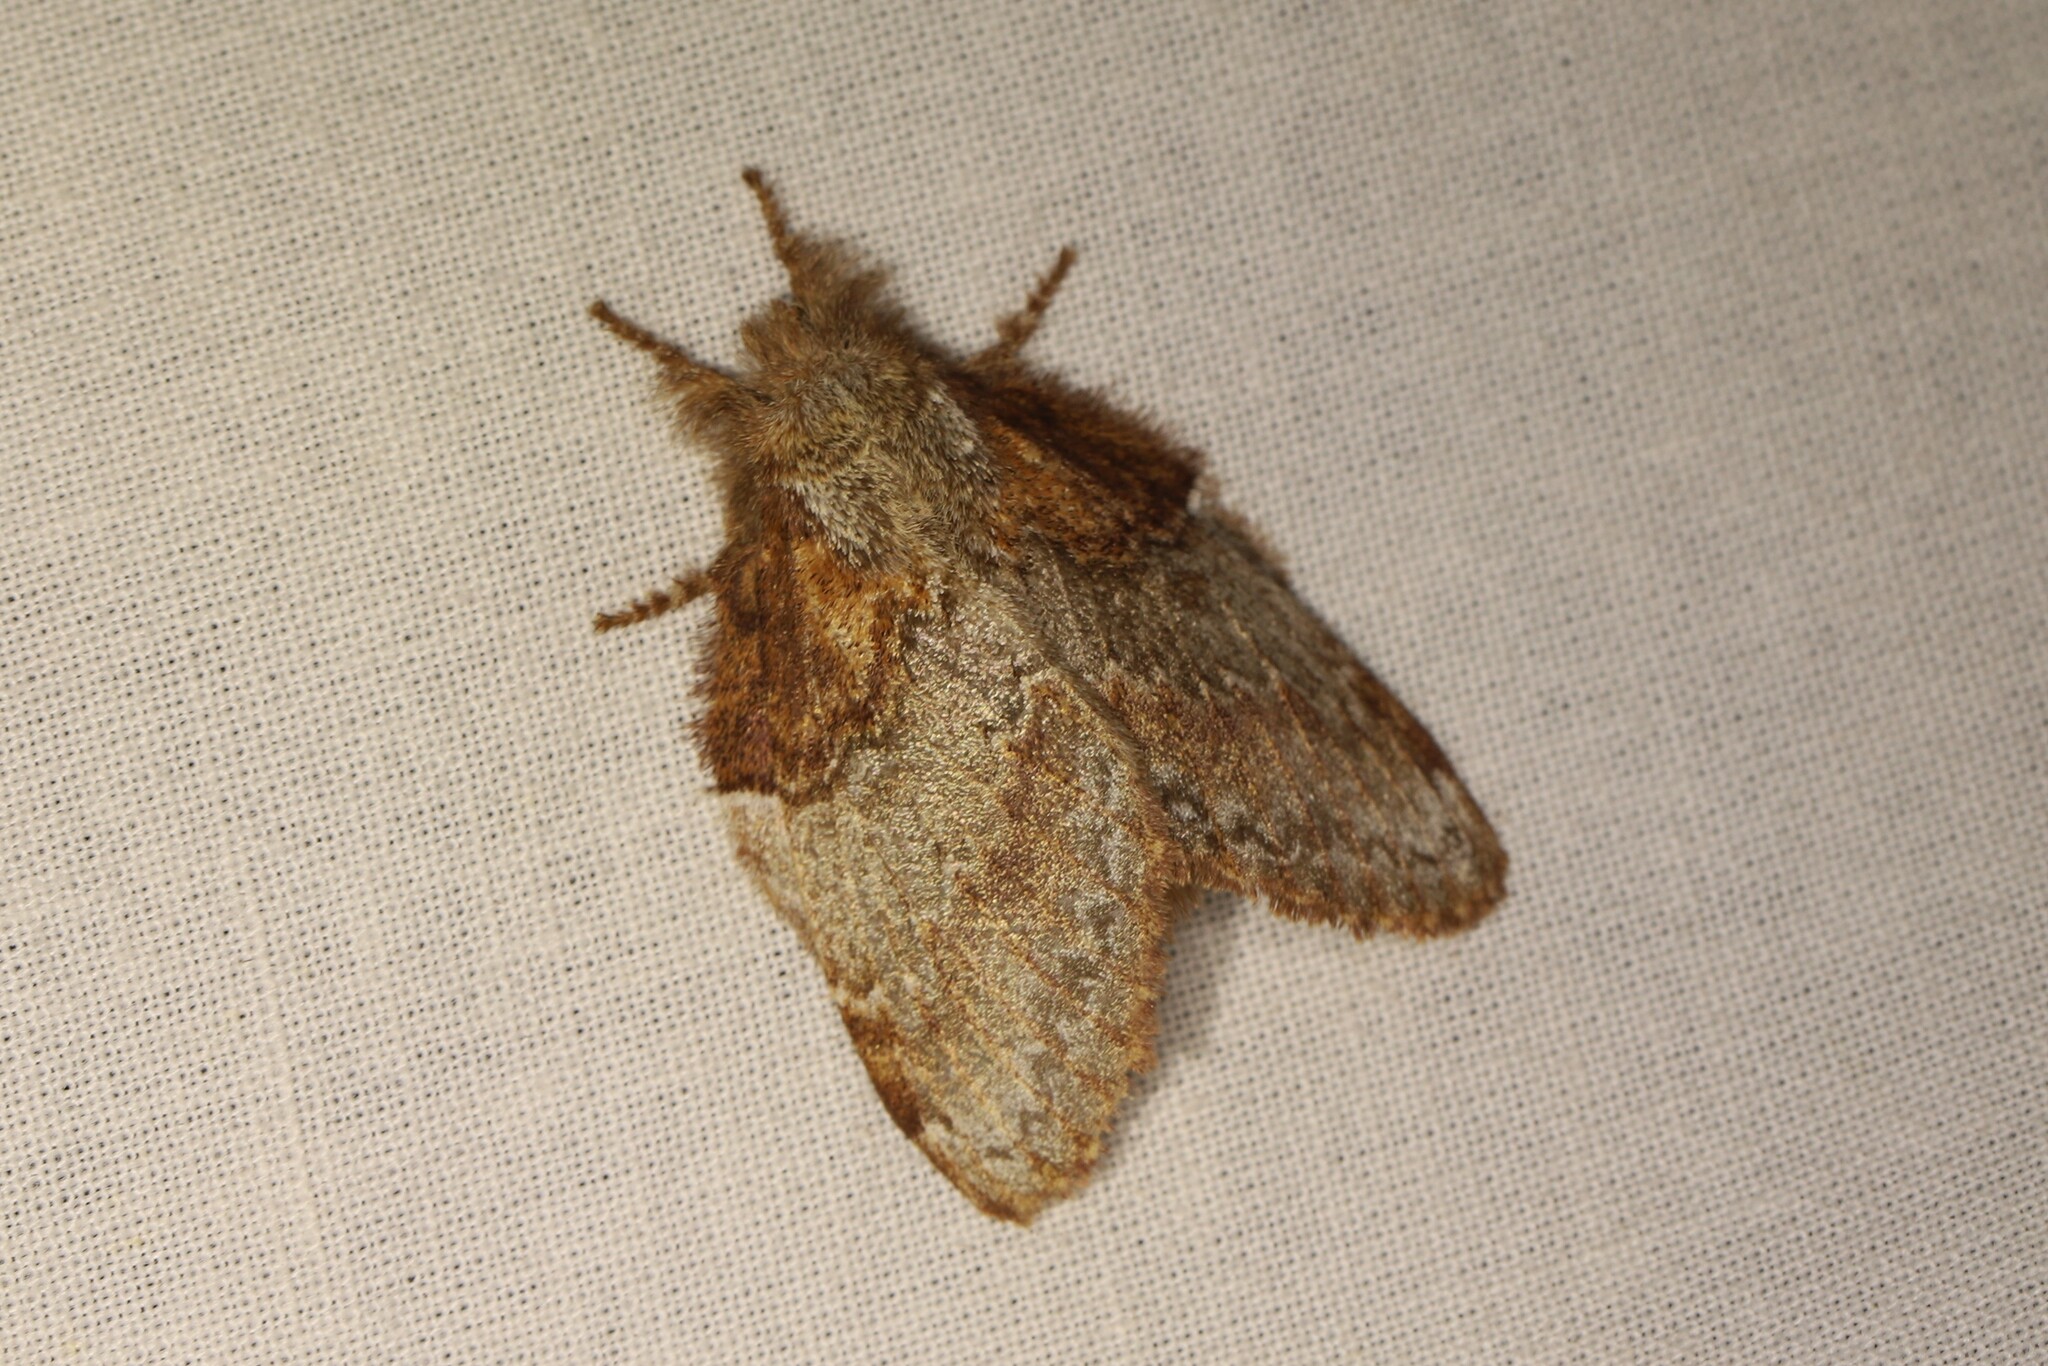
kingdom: Animalia
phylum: Arthropoda
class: Insecta
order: Lepidoptera
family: Lasiocampidae
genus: Euglyphis
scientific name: Euglyphis larunda
